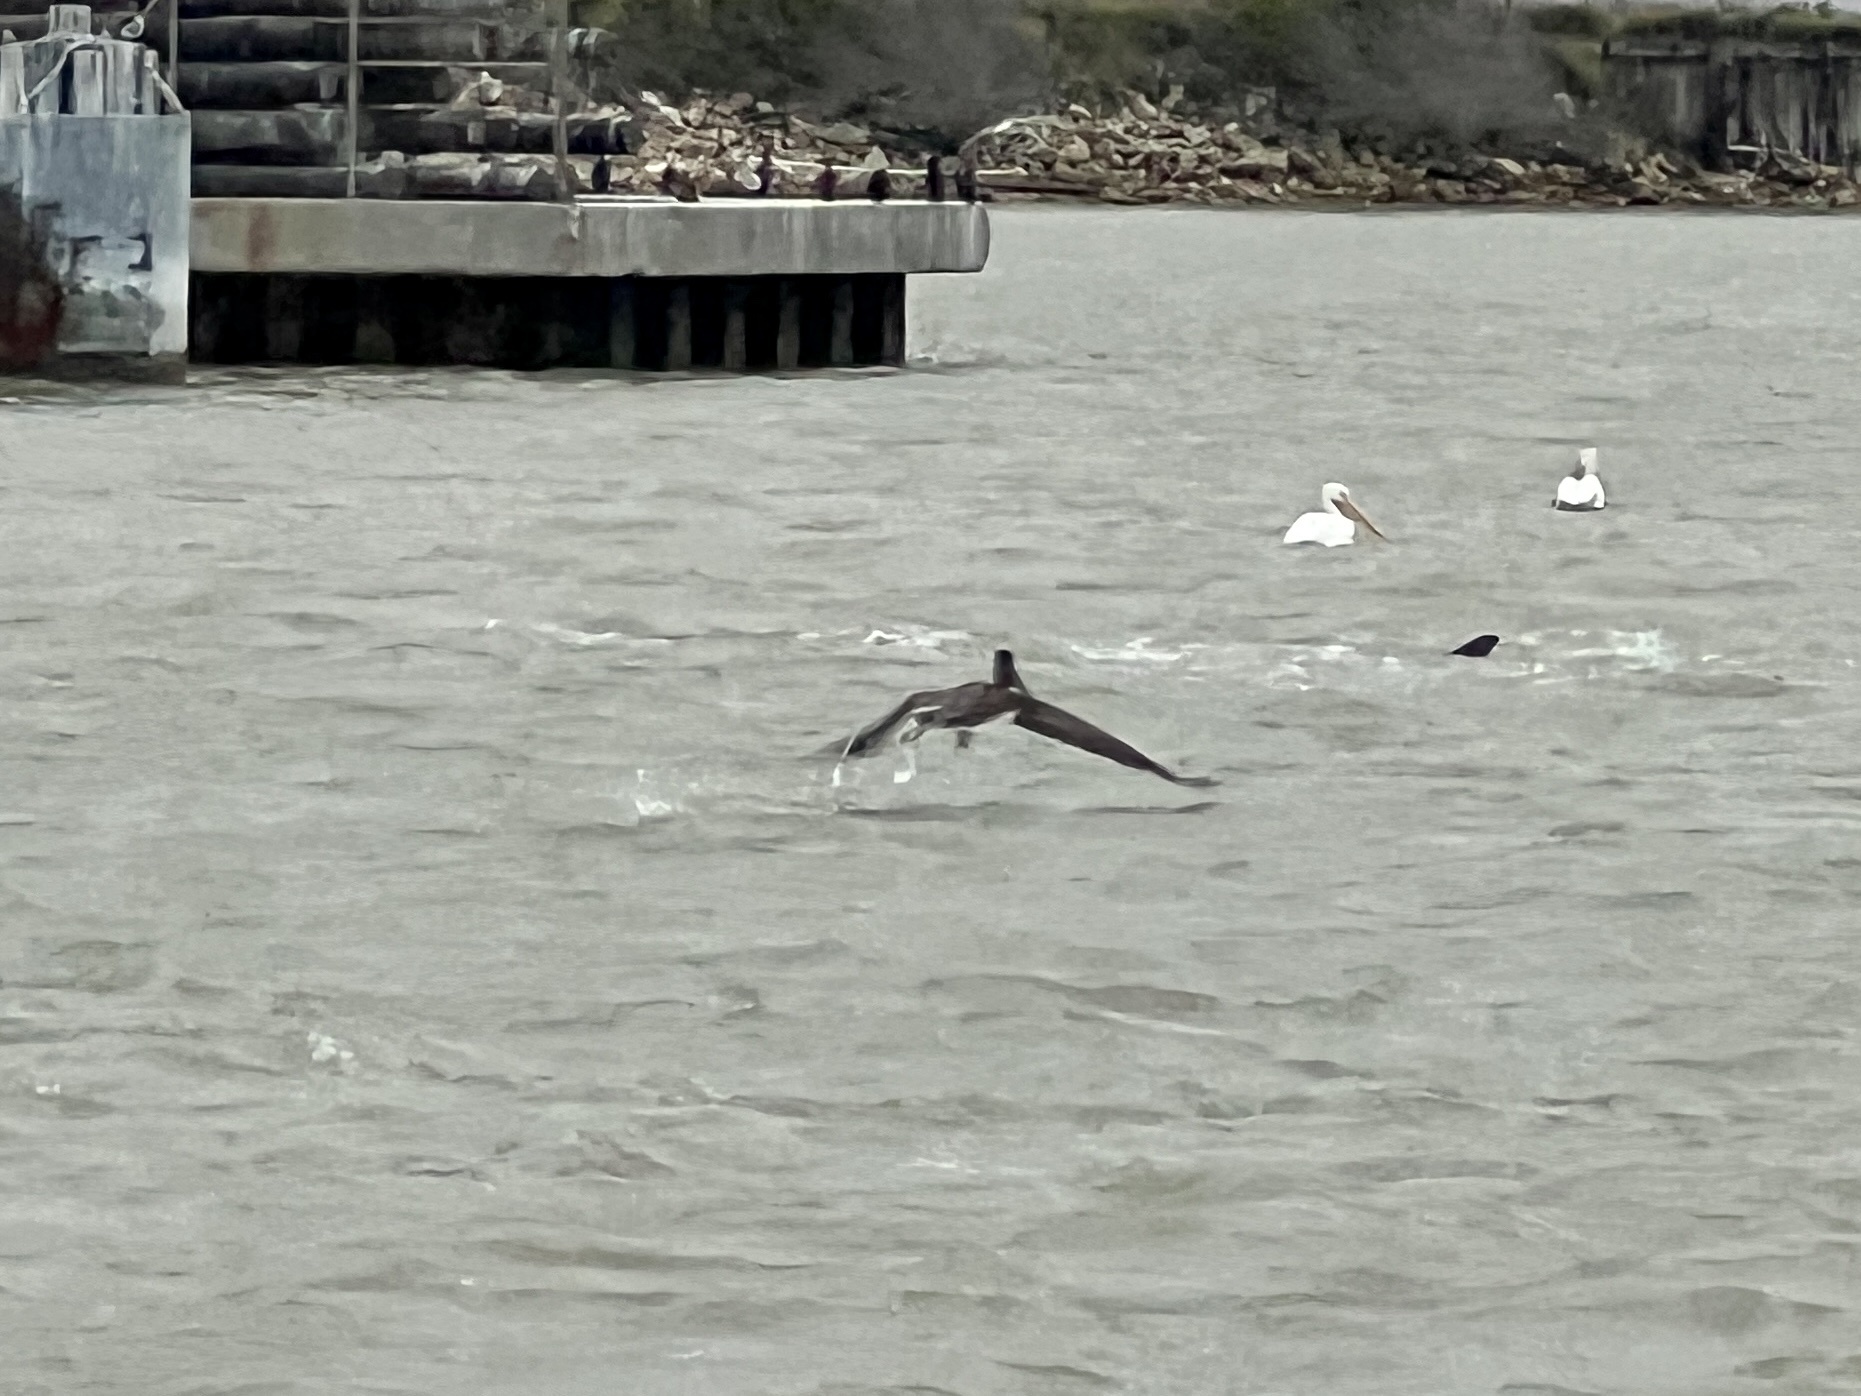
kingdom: Animalia
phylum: Chordata
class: Aves
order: Pelecaniformes
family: Pelecanidae
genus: Pelecanus
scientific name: Pelecanus occidentalis
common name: Brown pelican
